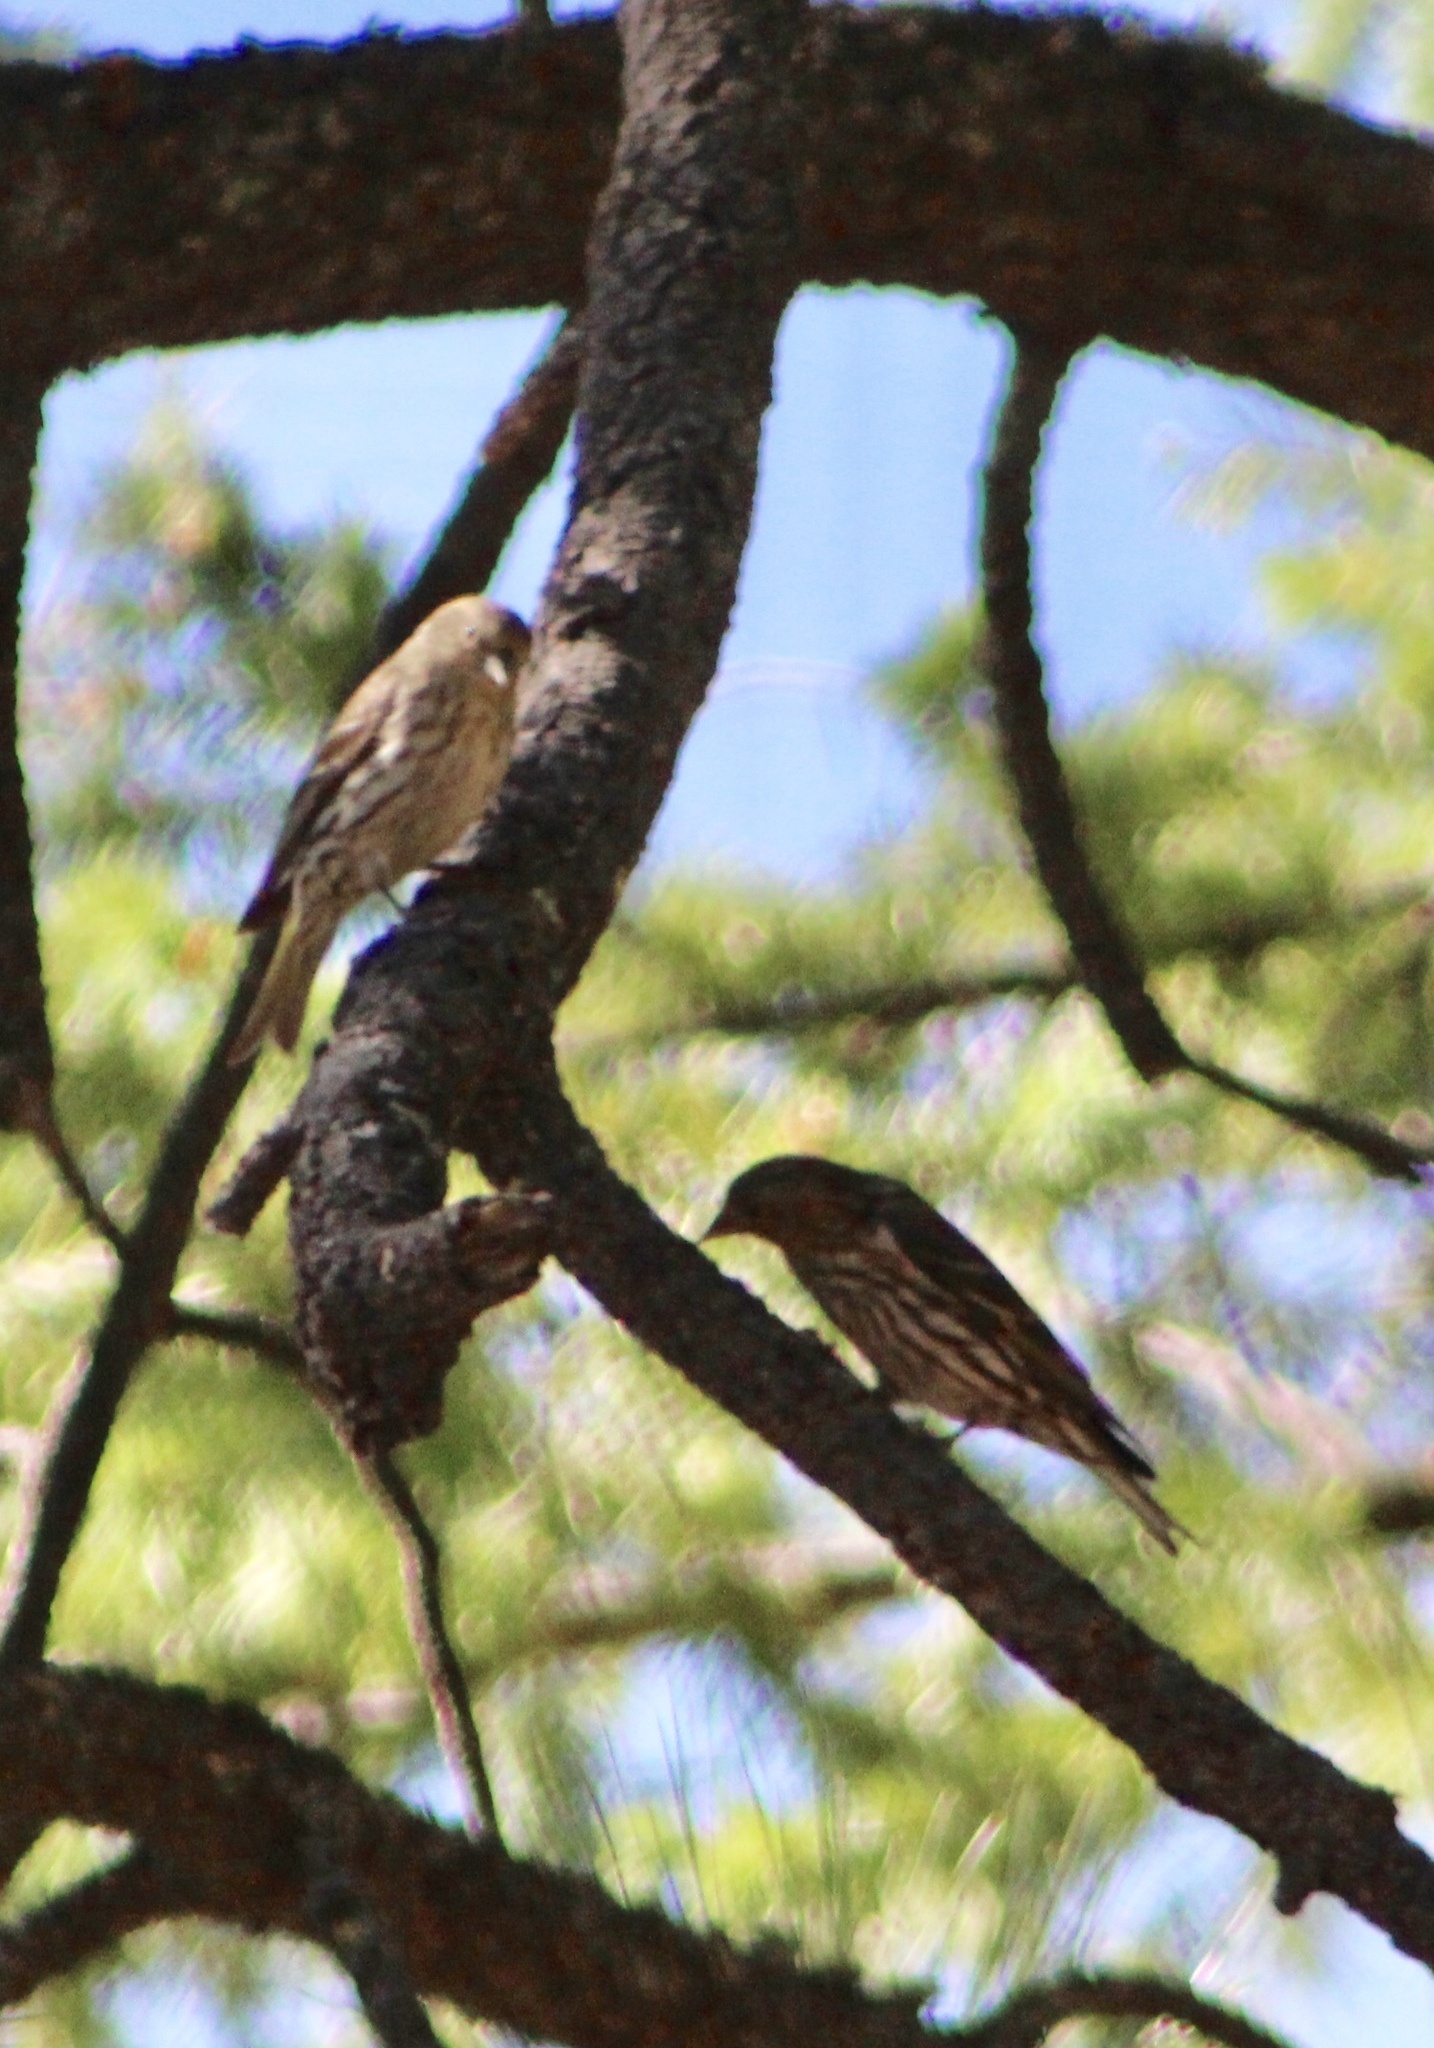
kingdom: Animalia
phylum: Chordata
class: Aves
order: Passeriformes
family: Fringillidae
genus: Spinus
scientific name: Spinus pinus
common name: Pine siskin
